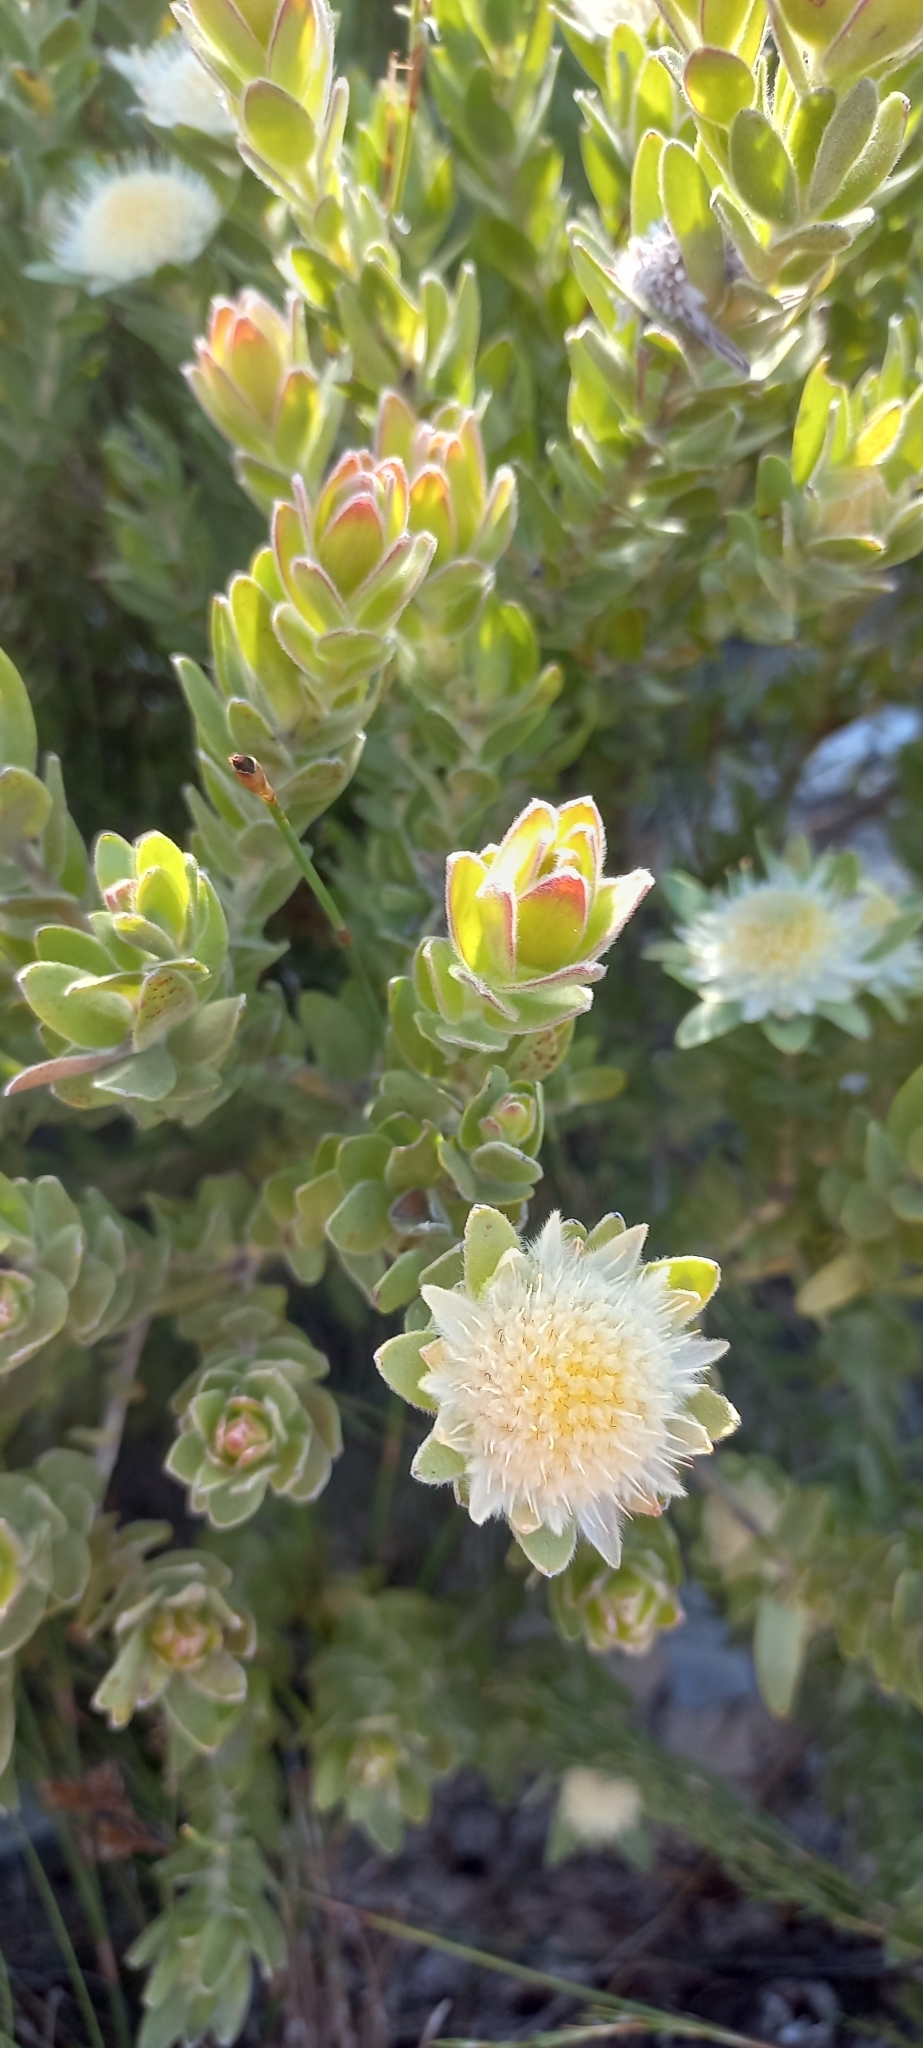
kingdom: Plantae
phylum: Tracheophyta
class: Magnoliopsida
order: Proteales
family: Proteaceae
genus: Diastella
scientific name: Diastella thymelaeoides
